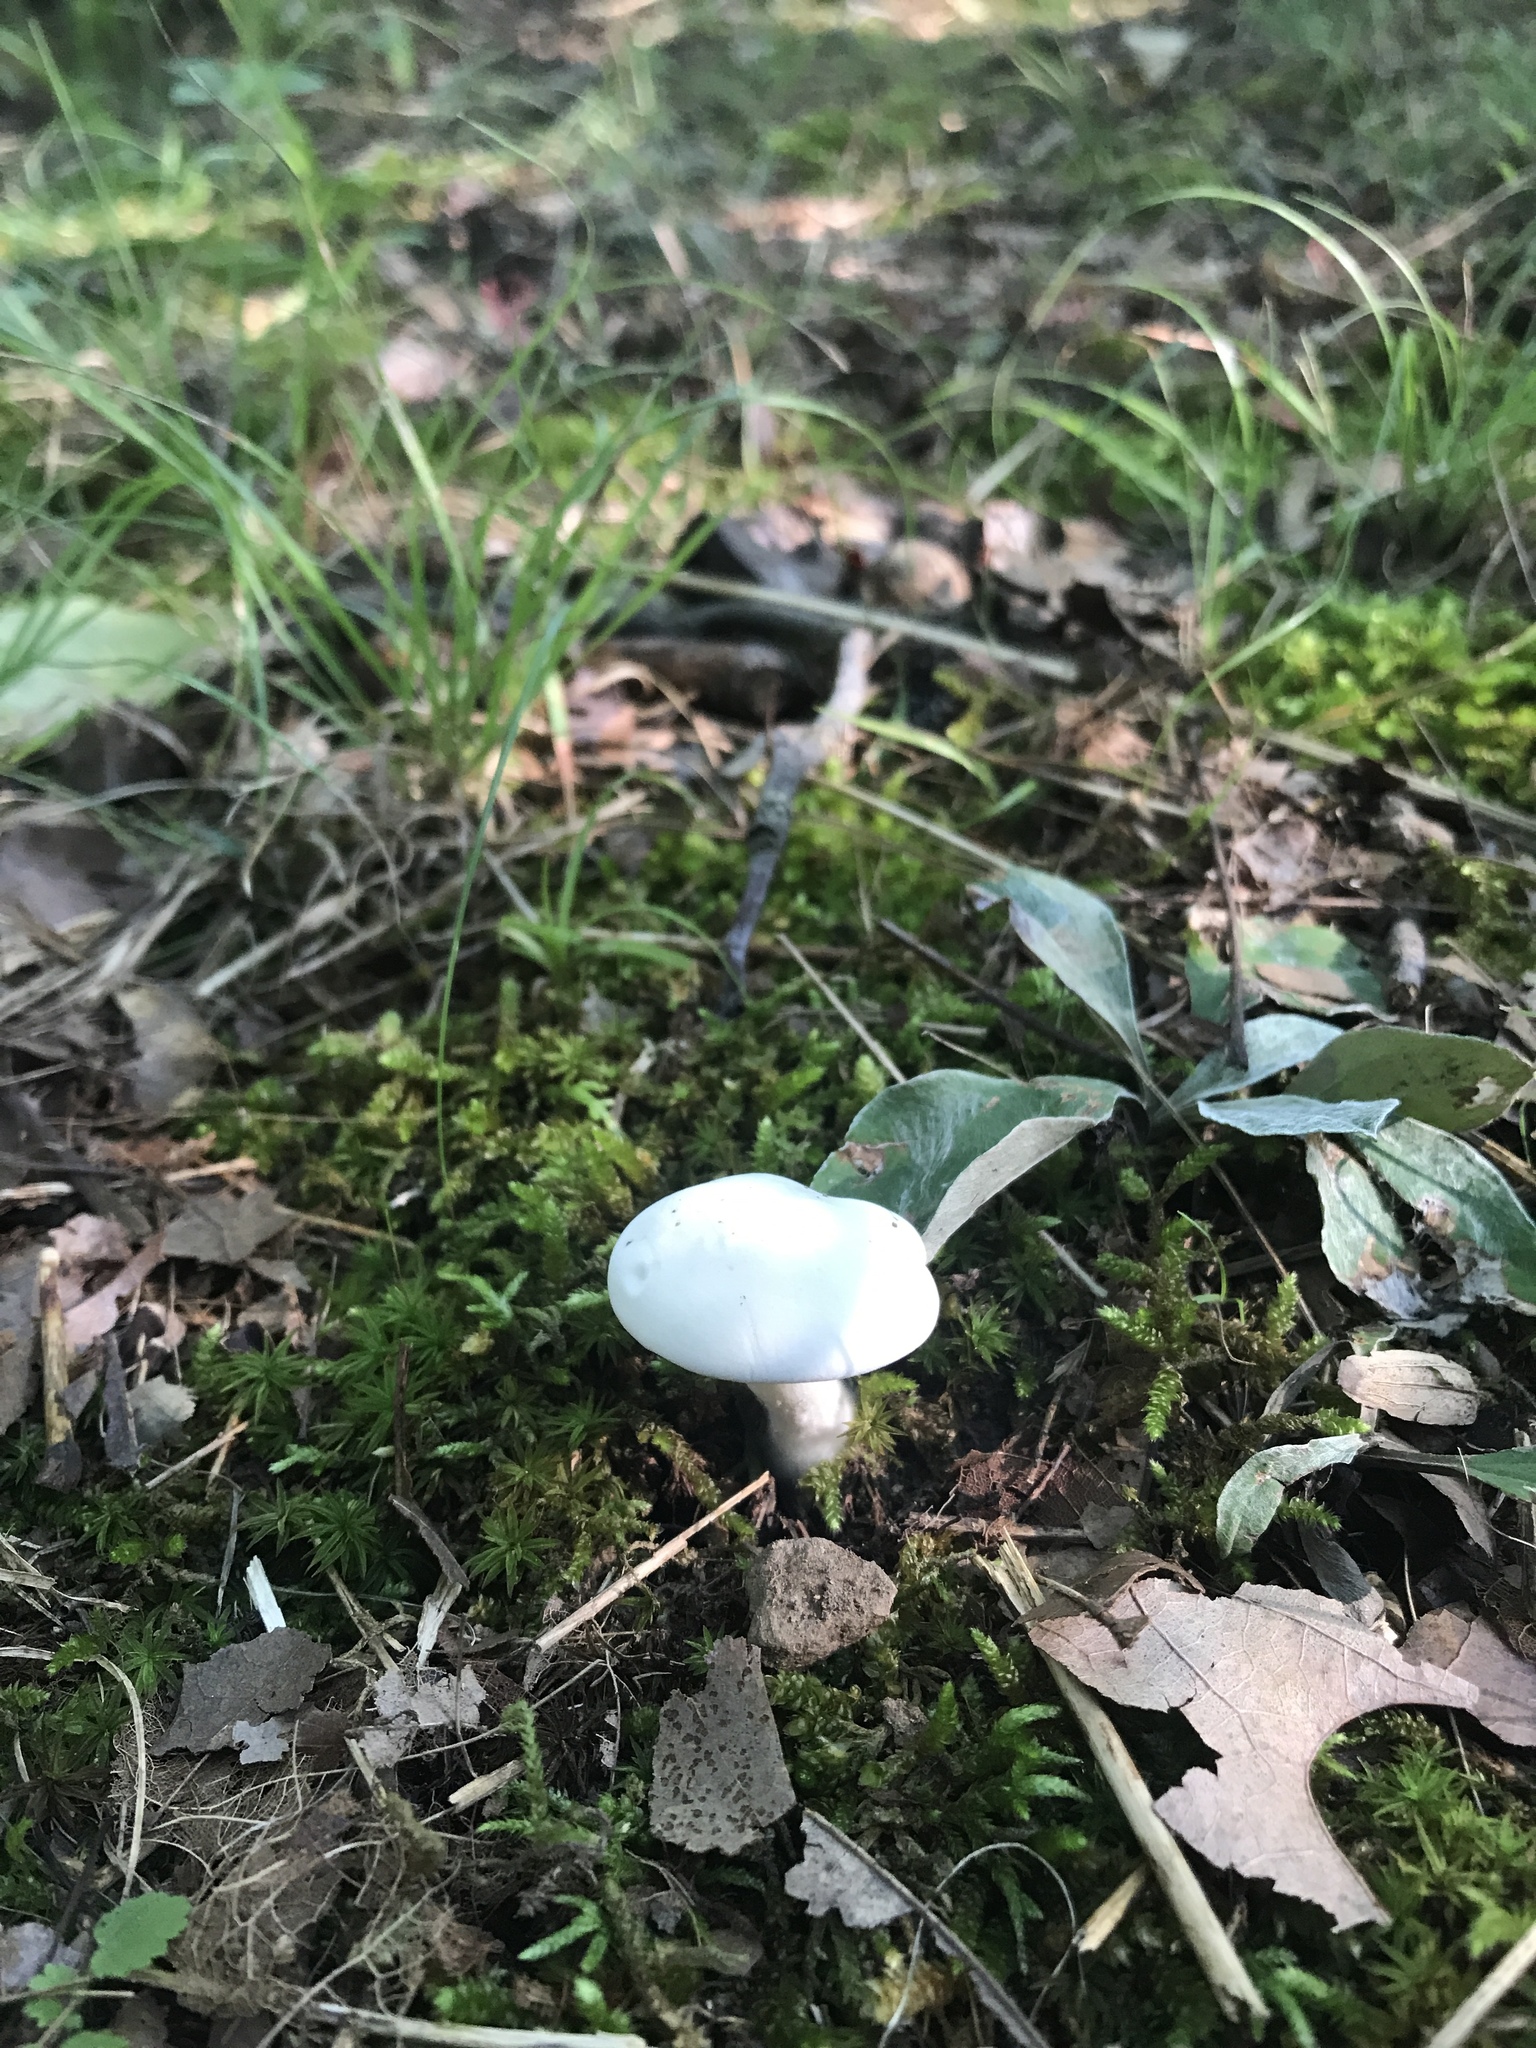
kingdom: Fungi
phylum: Basidiomycota
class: Agaricomycetes
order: Agaricales
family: Entolomataceae
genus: Clitopilus
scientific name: Clitopilus prunulus
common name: The miller
